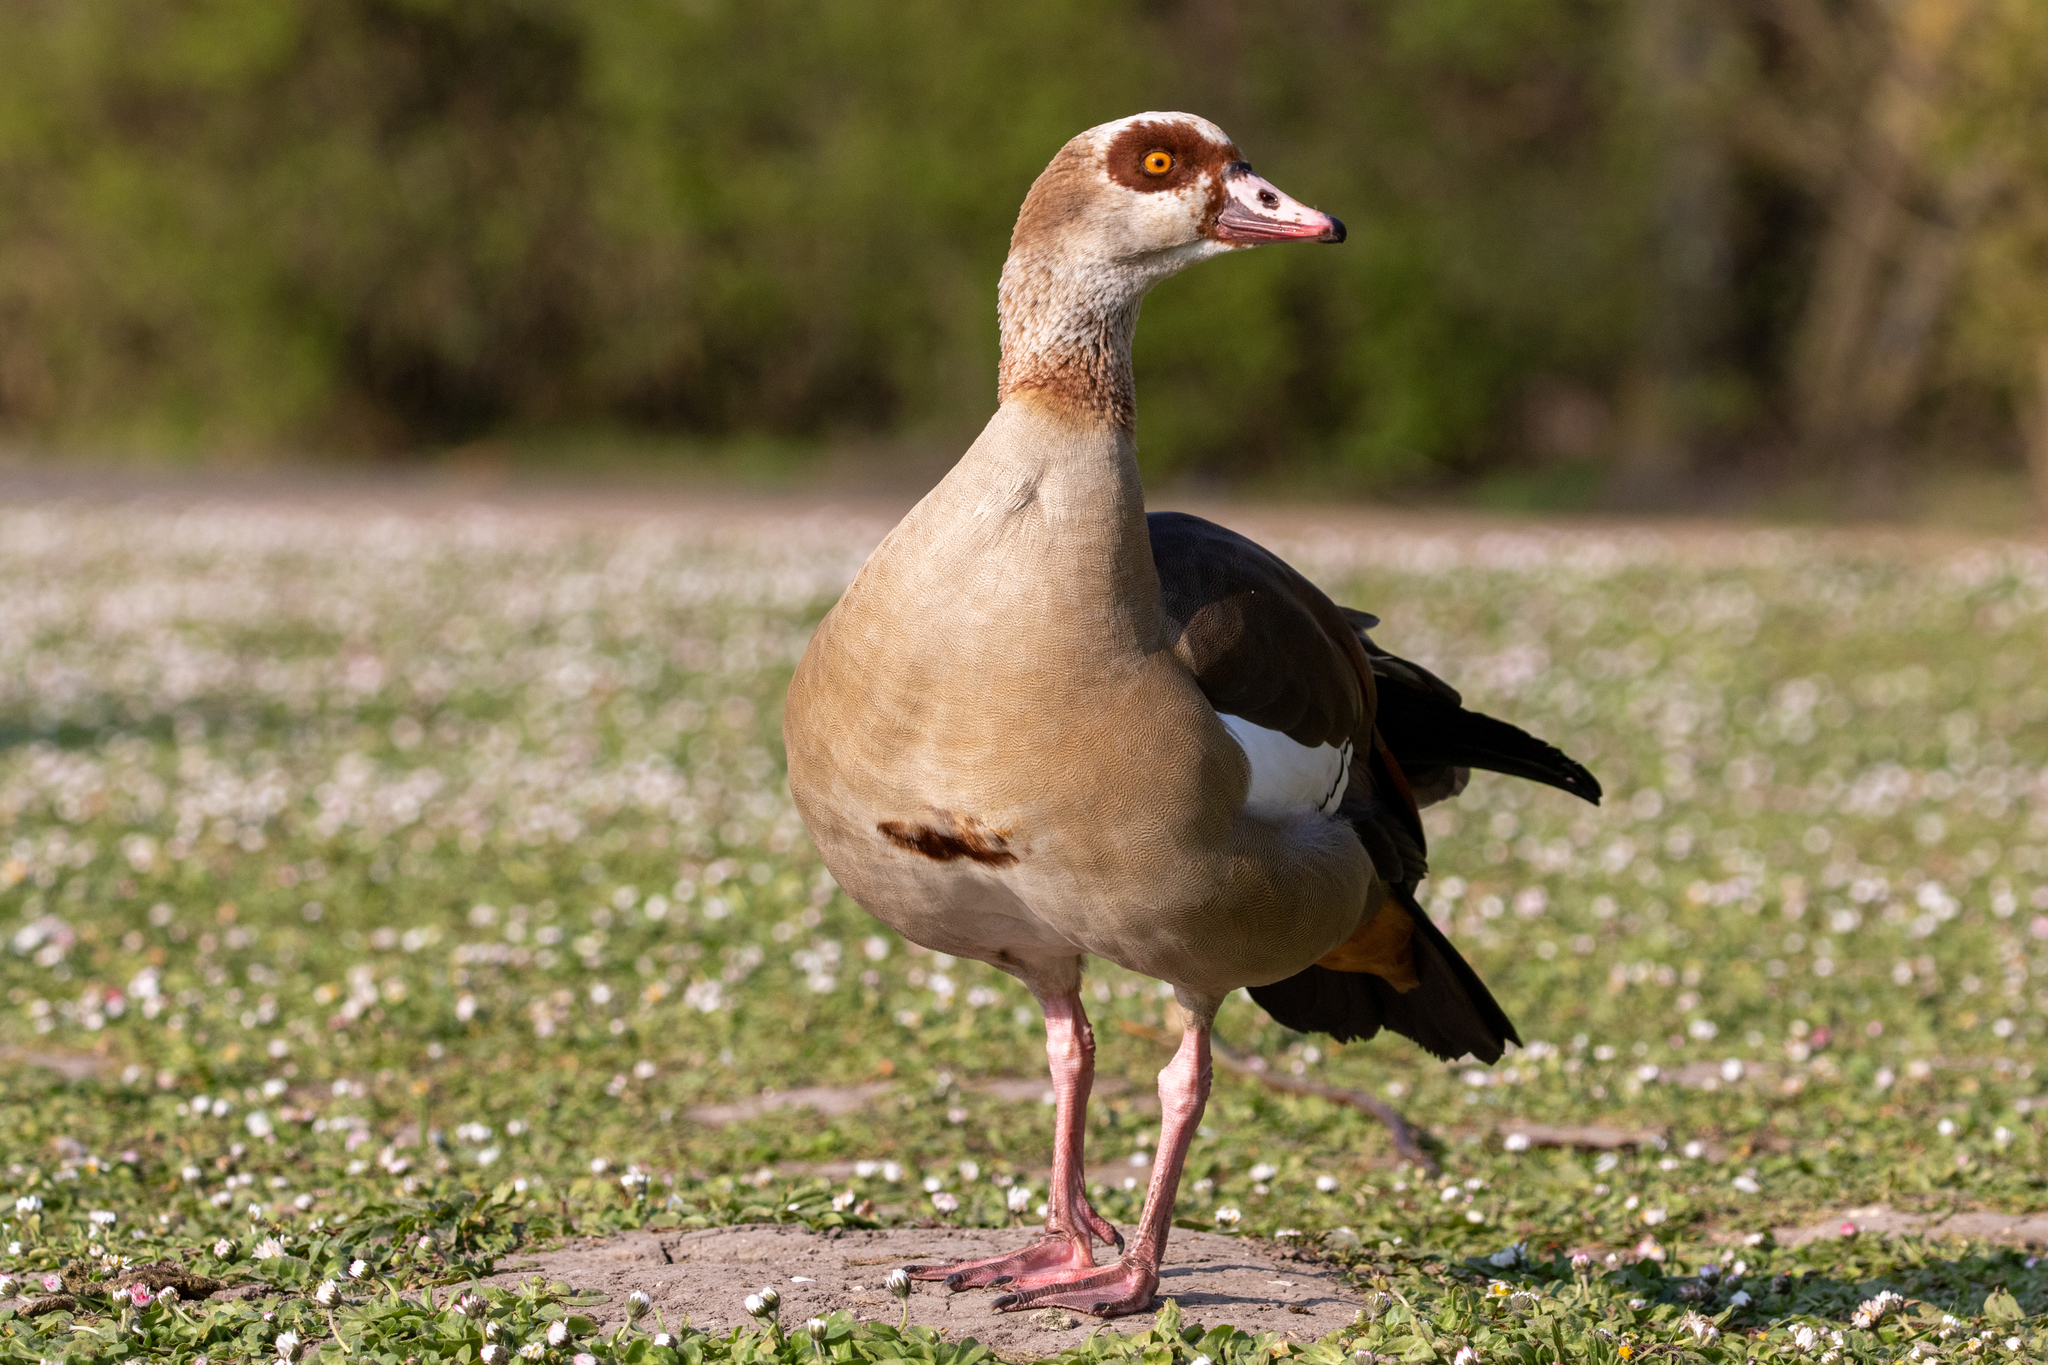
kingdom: Animalia
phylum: Chordata
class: Aves
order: Anseriformes
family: Anatidae
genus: Alopochen
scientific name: Alopochen aegyptiaca
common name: Egyptian goose
